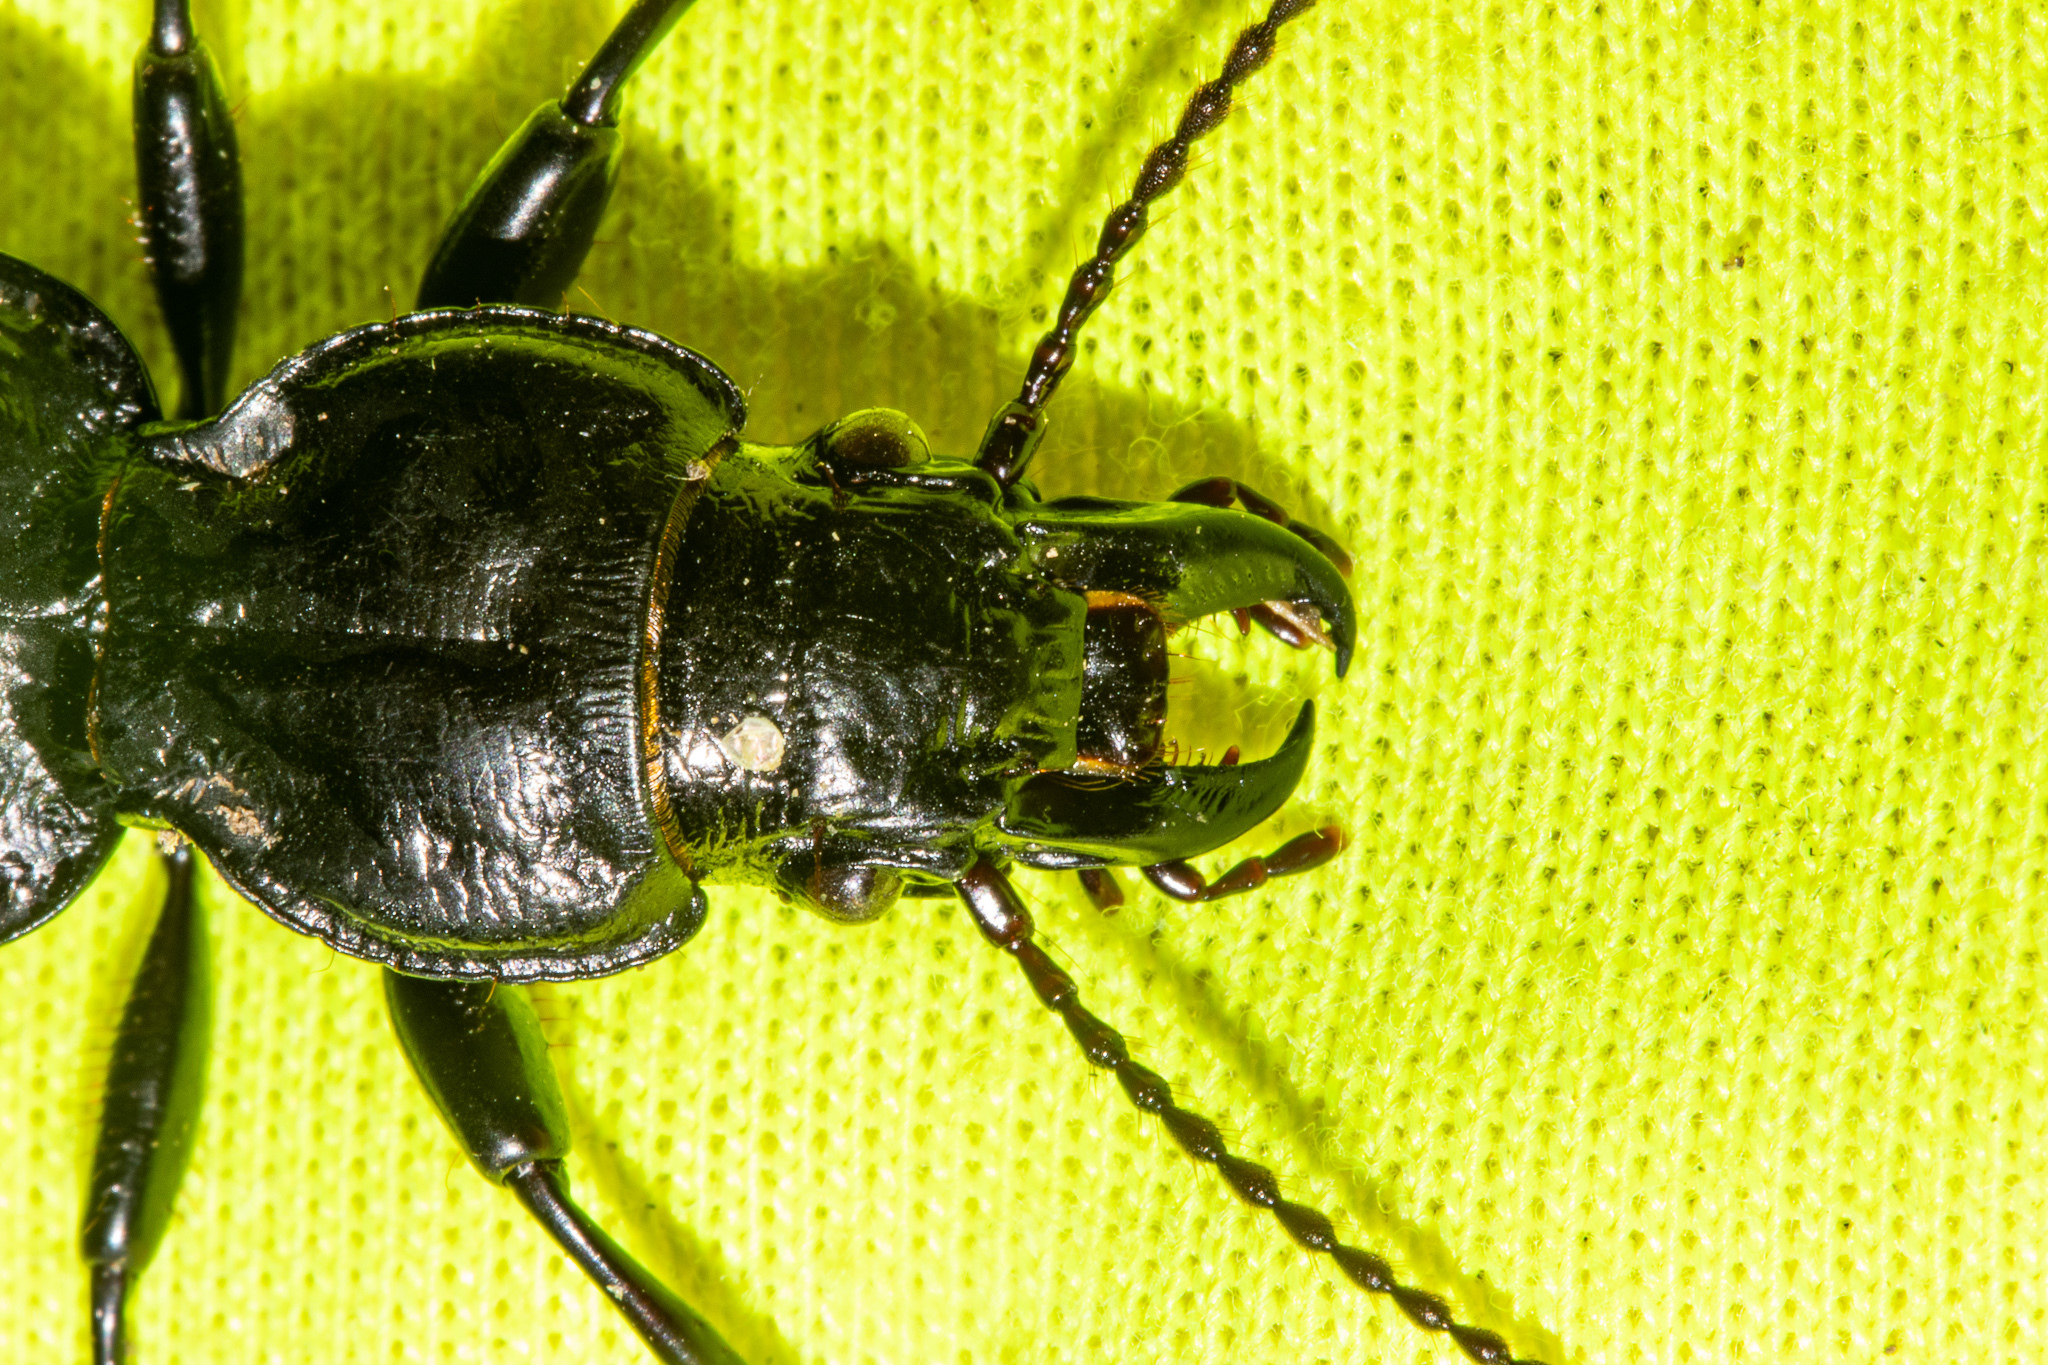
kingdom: Animalia
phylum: Arthropoda
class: Insecta
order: Coleoptera
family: Carabidae
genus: Mecodema
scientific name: Mecodema laterale
